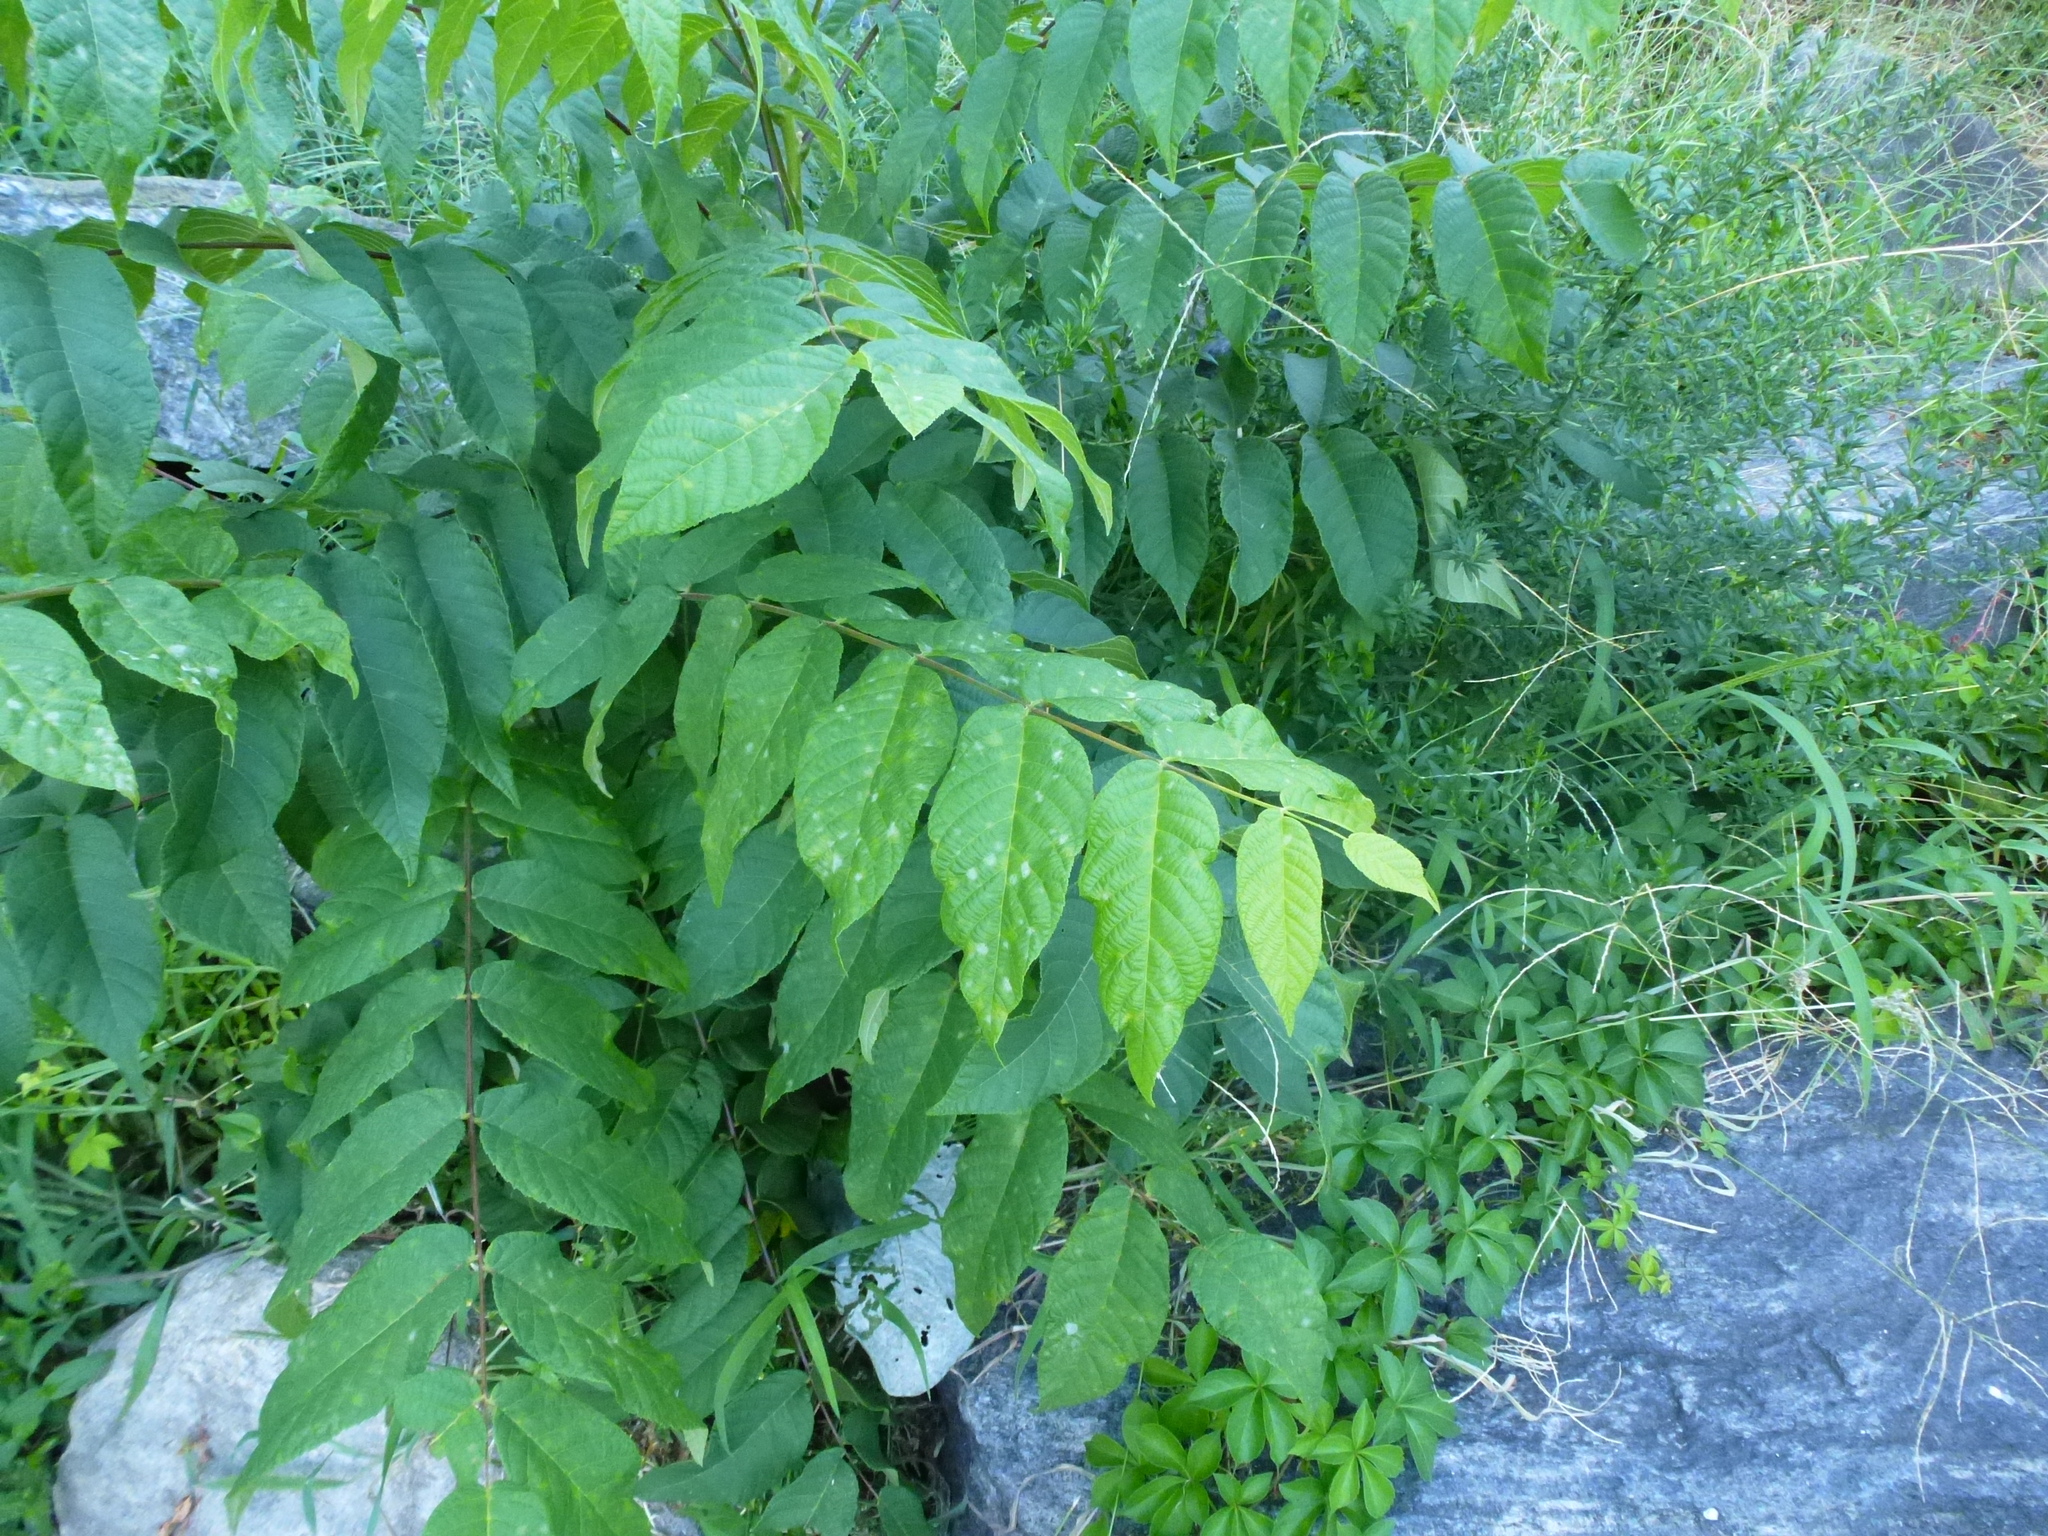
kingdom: Plantae
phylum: Tracheophyta
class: Magnoliopsida
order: Fagales
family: Juglandaceae
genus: Juglans
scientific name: Juglans nigra
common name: Black walnut
